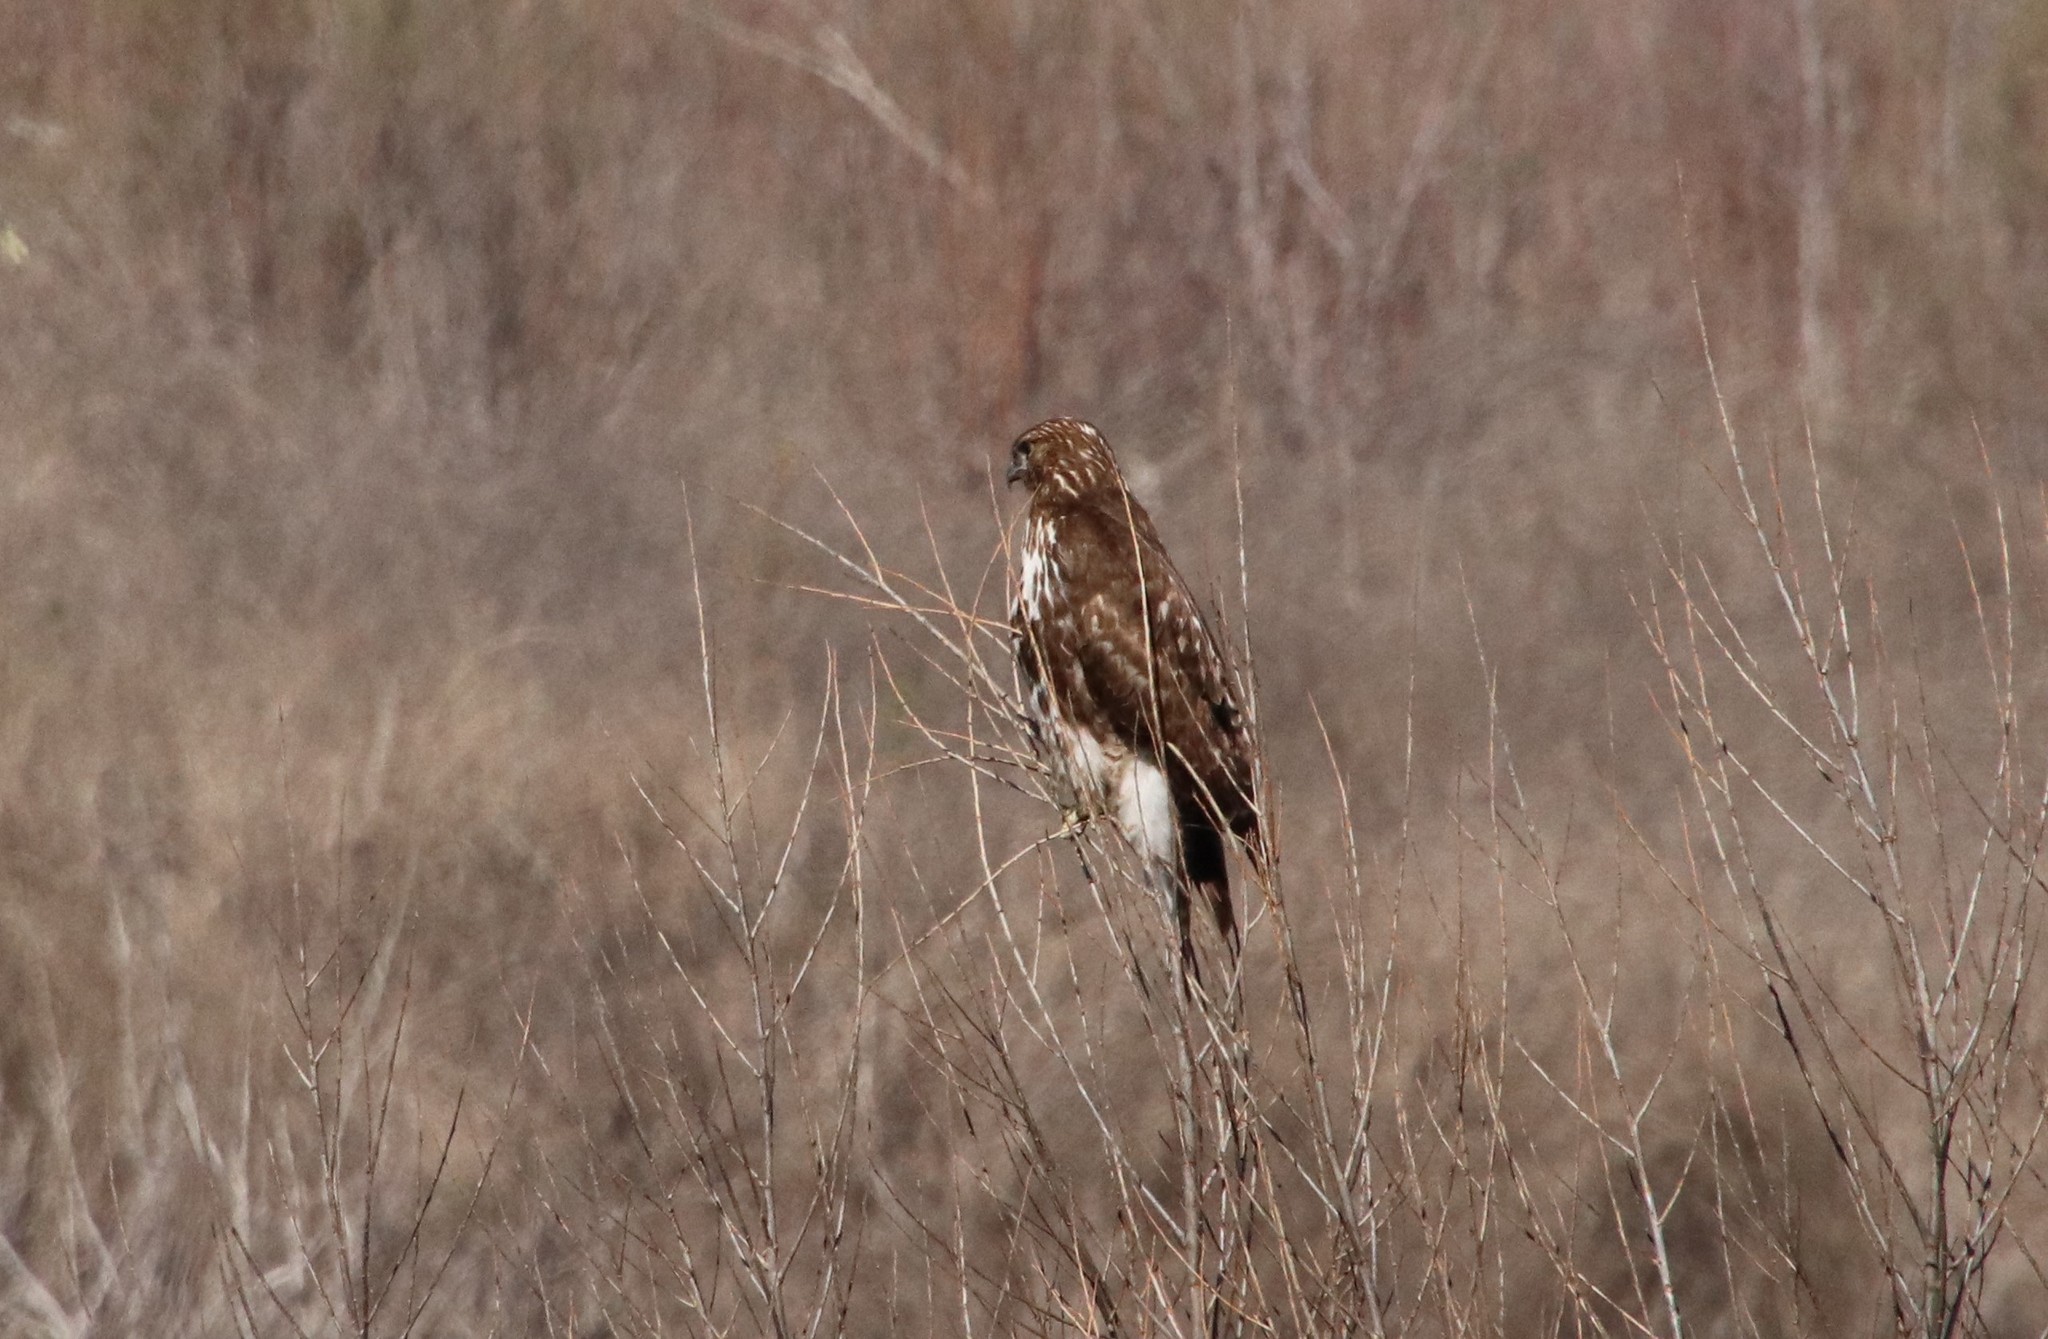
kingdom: Animalia
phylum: Chordata
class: Aves
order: Accipitriformes
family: Accipitridae
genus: Buteo
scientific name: Buteo jamaicensis
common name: Red-tailed hawk
